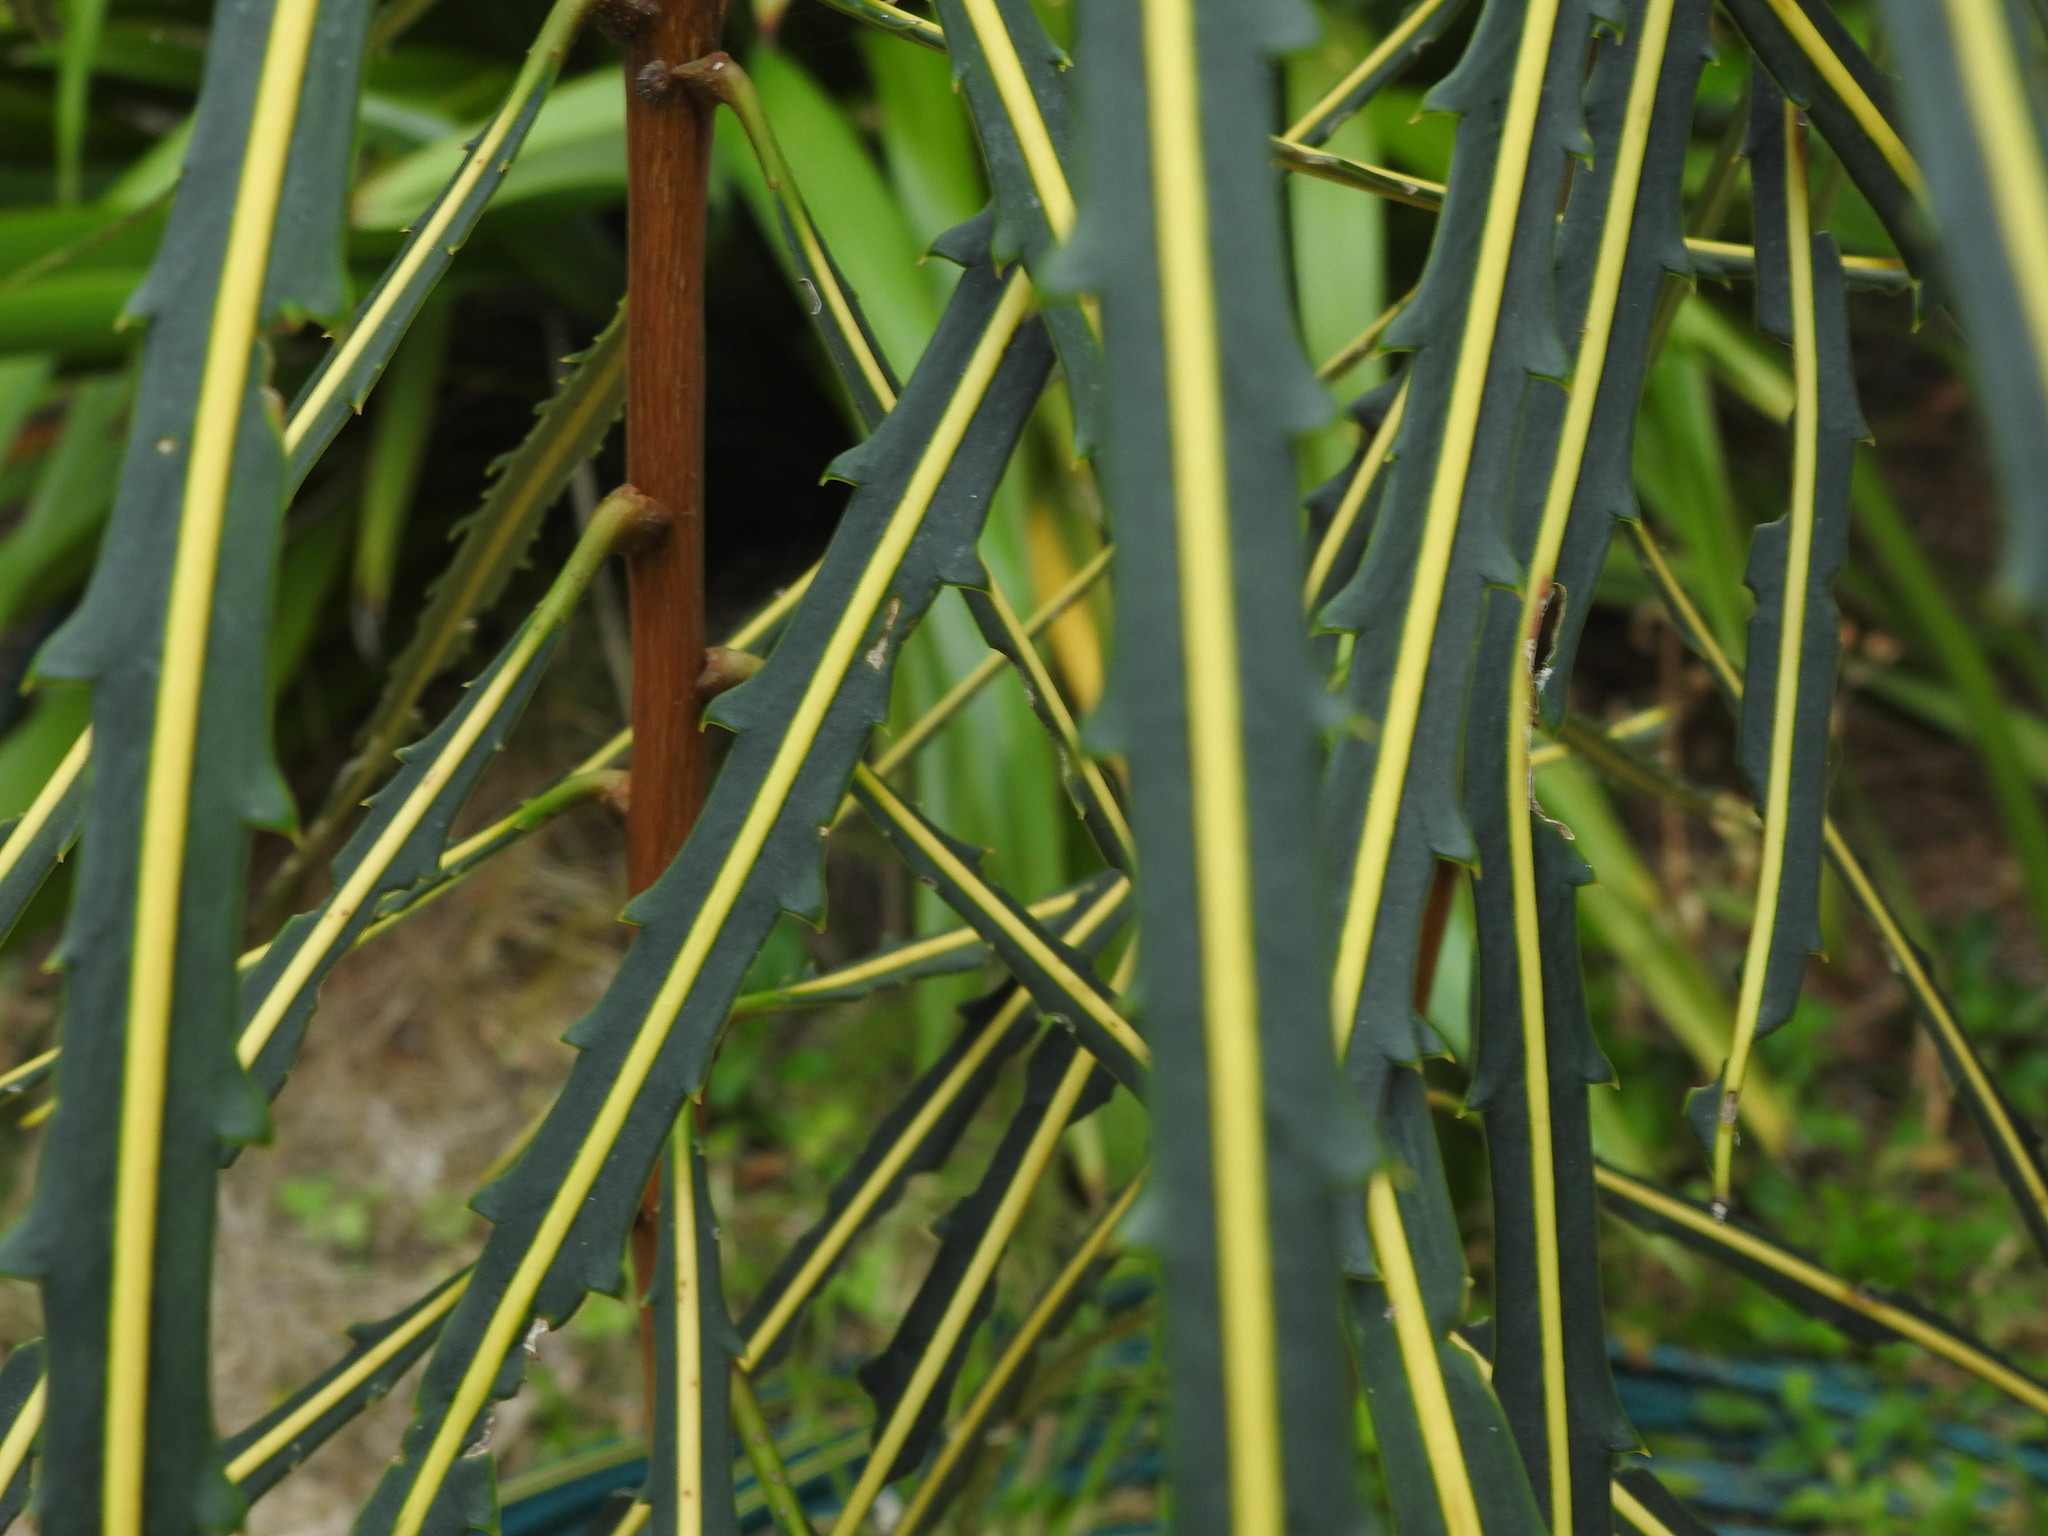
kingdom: Plantae
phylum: Tracheophyta
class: Magnoliopsida
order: Apiales
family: Araliaceae
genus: Pseudopanax
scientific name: Pseudopanax crassifolius
